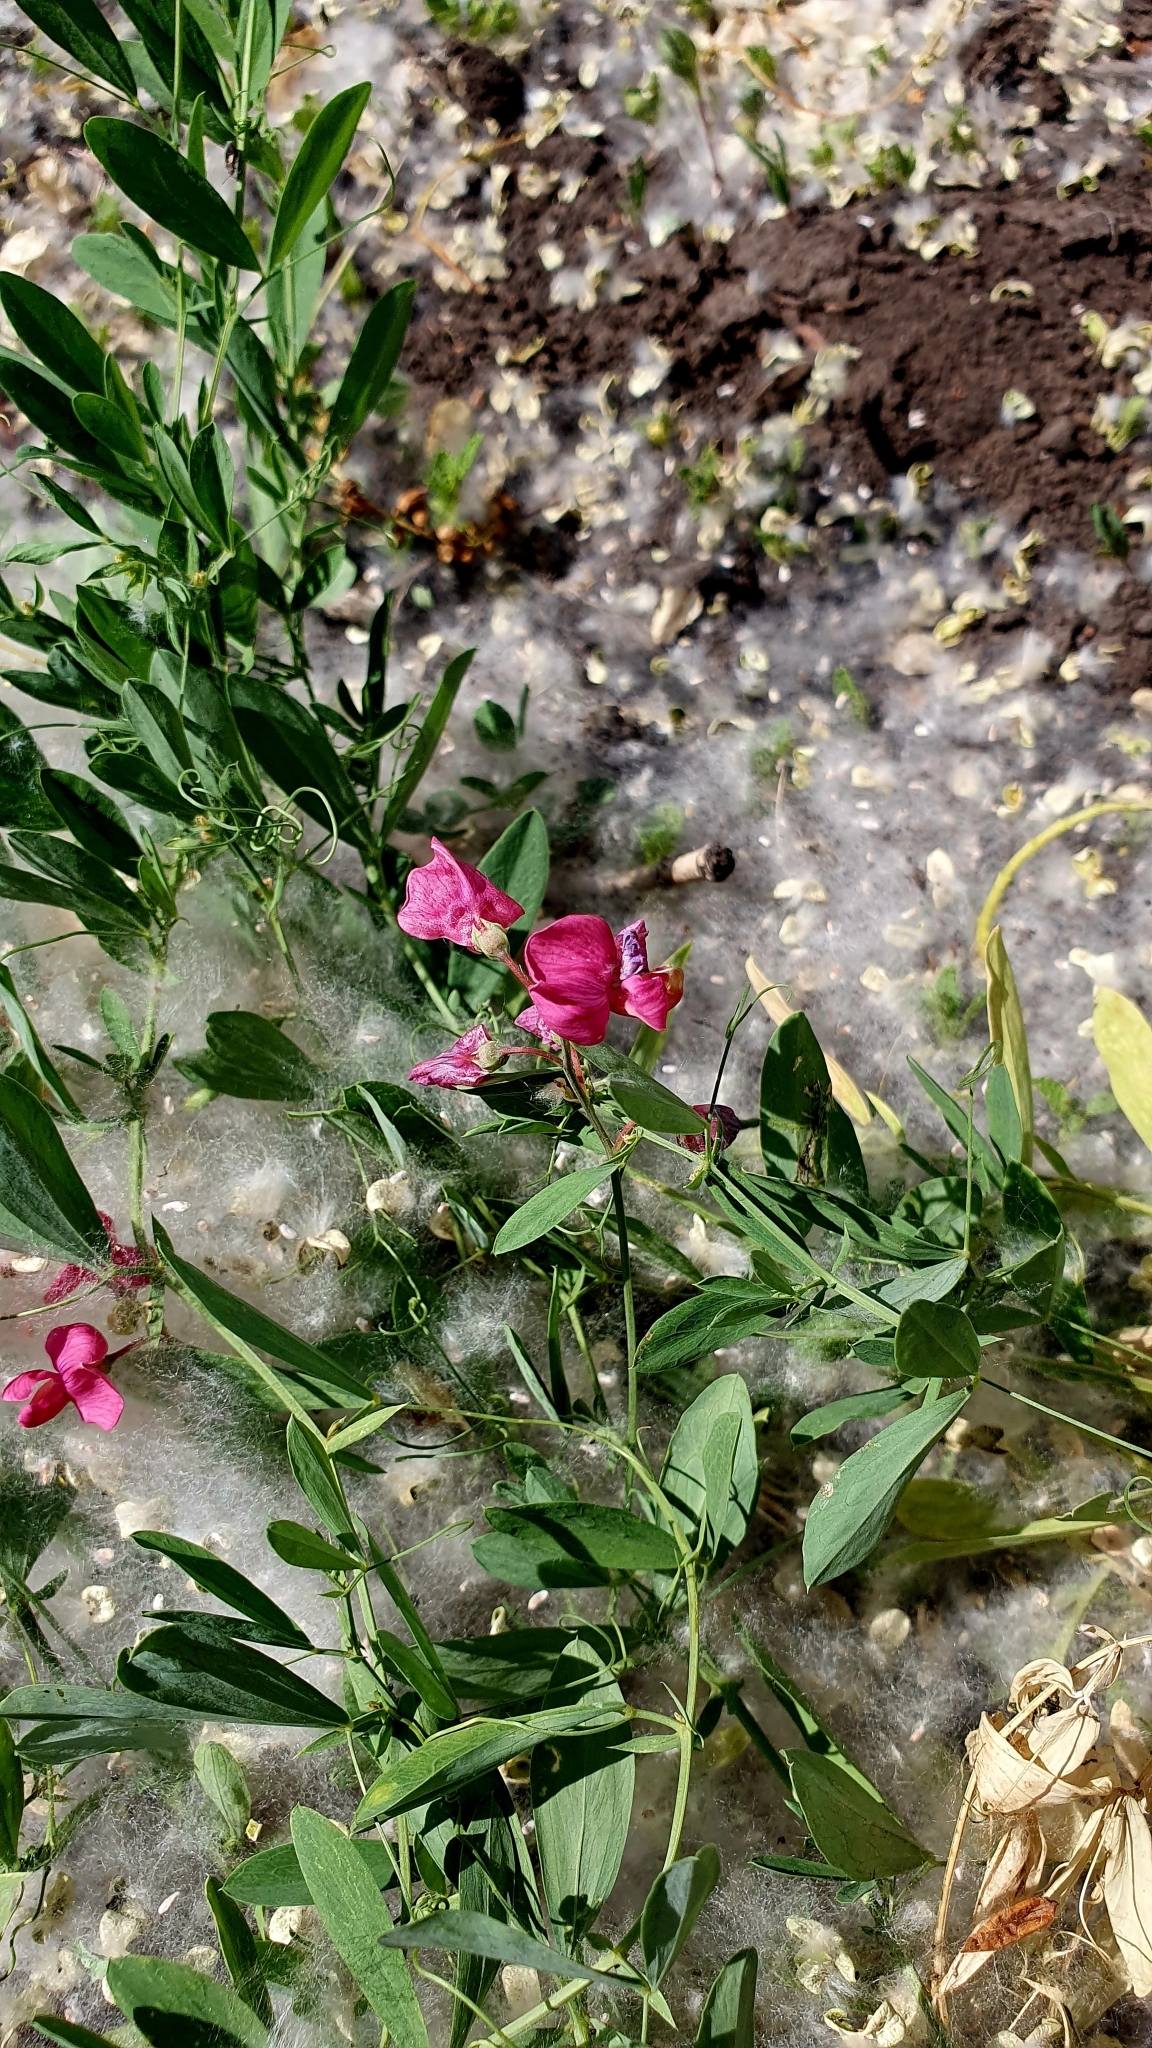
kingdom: Plantae
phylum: Tracheophyta
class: Magnoliopsida
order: Fabales
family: Fabaceae
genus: Lathyrus
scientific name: Lathyrus tuberosus
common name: Tuberous pea
